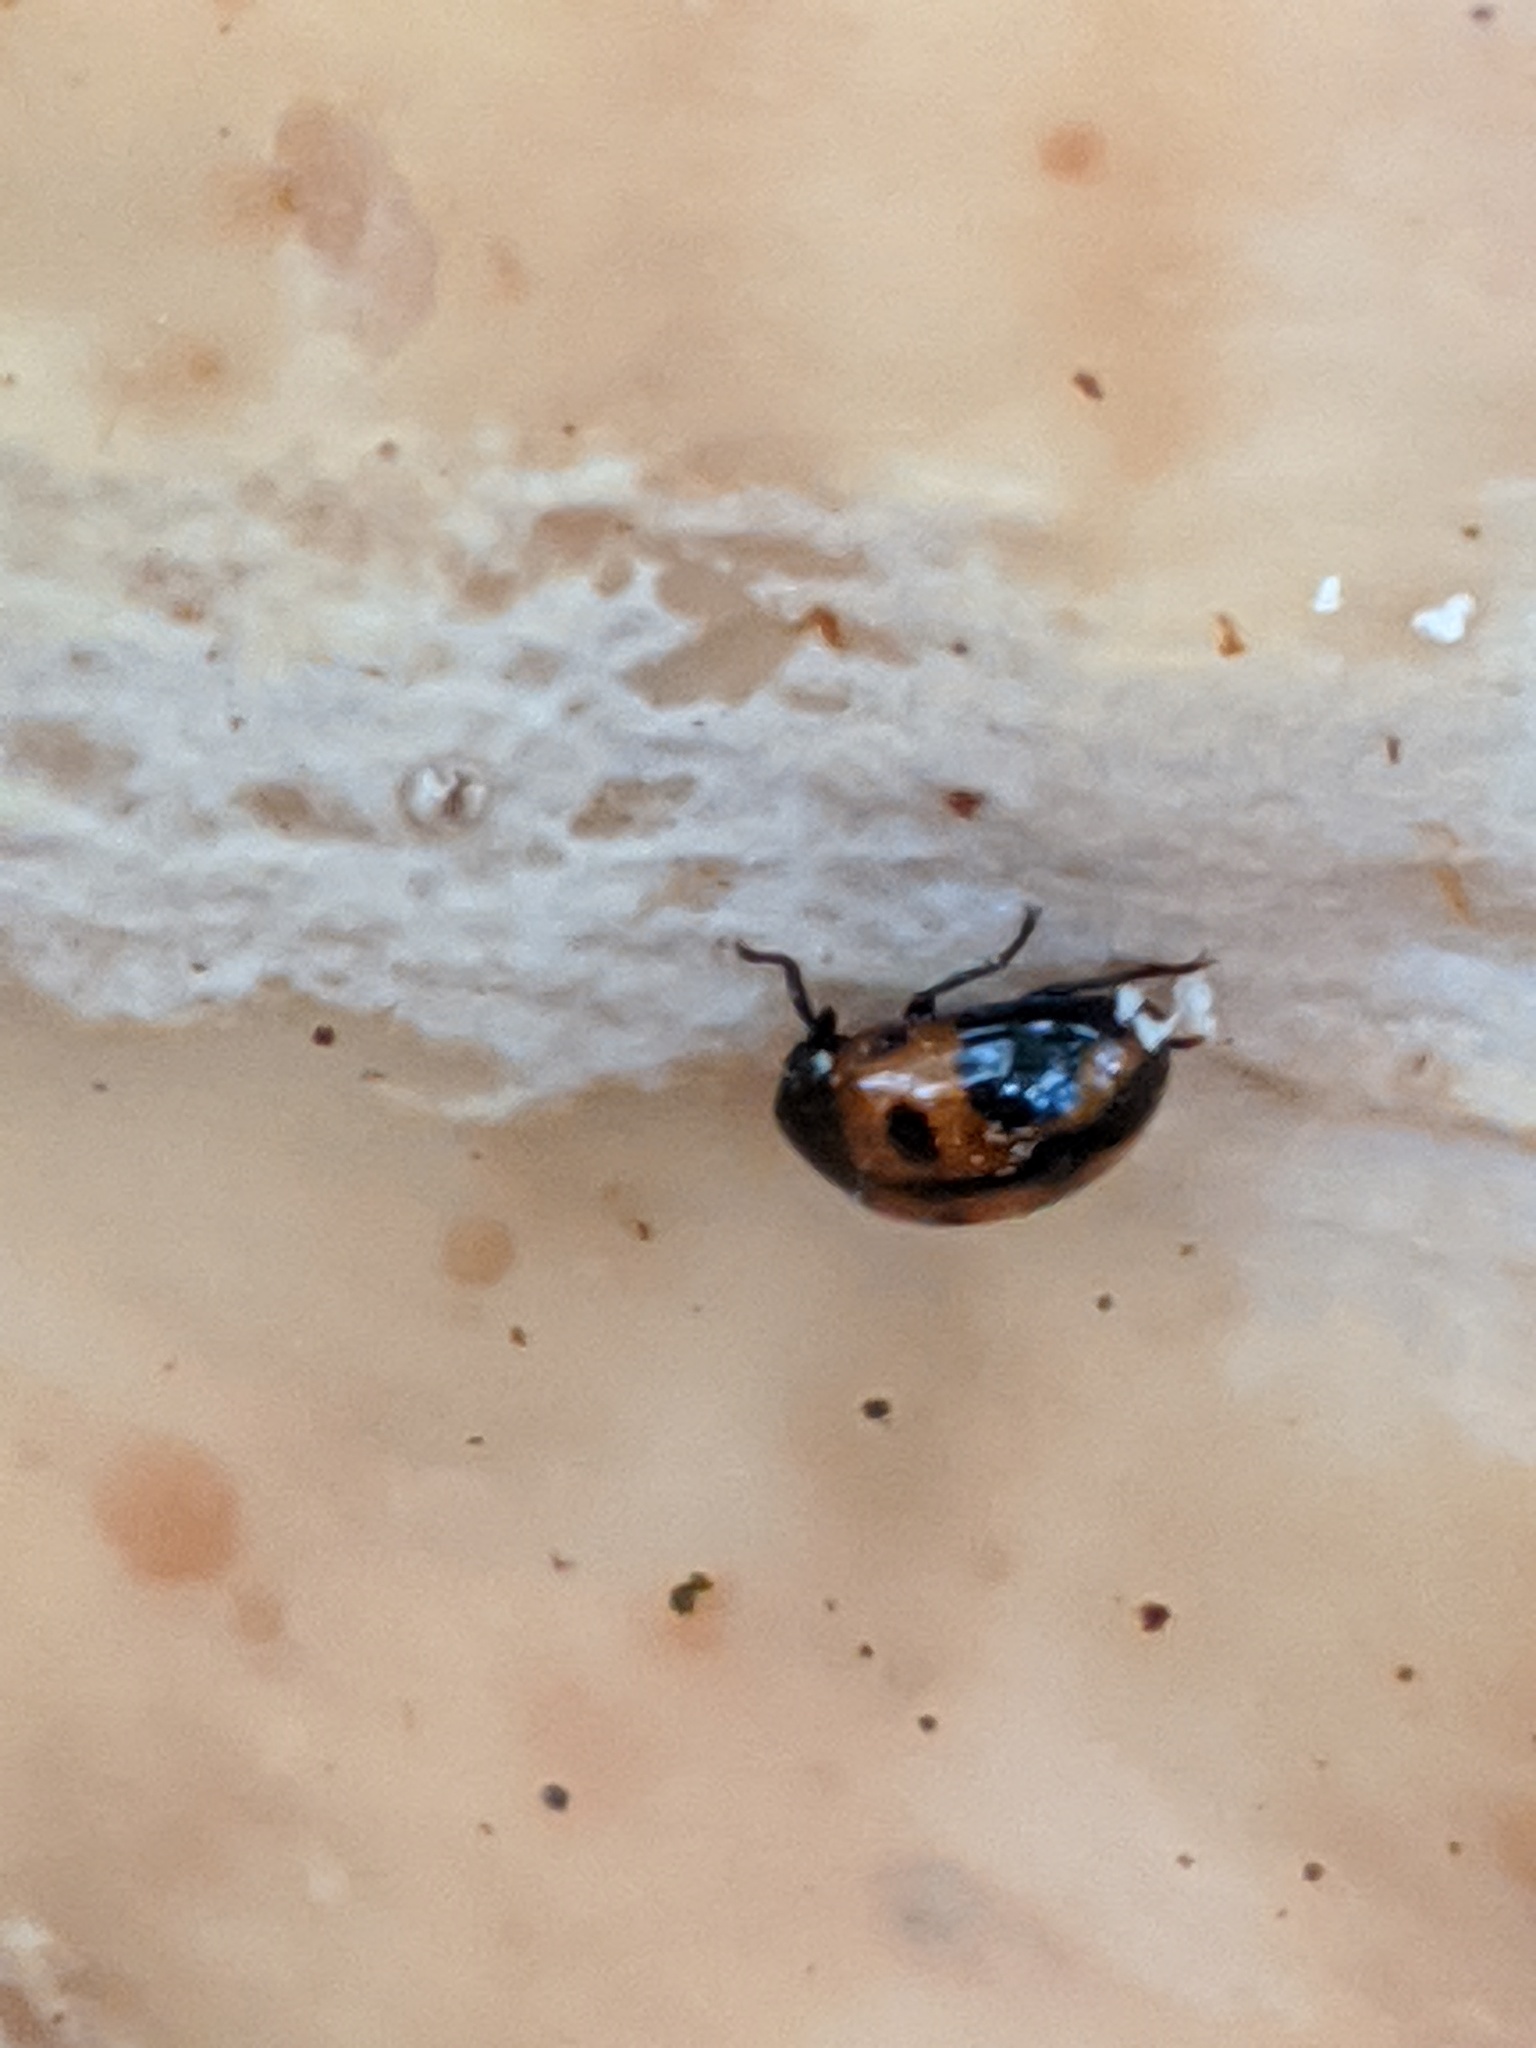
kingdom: Animalia
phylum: Arthropoda
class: Insecta
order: Coleoptera
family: Tenebrionidae
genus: Diaperis
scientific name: Diaperis maculata
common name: Darkling beetle
